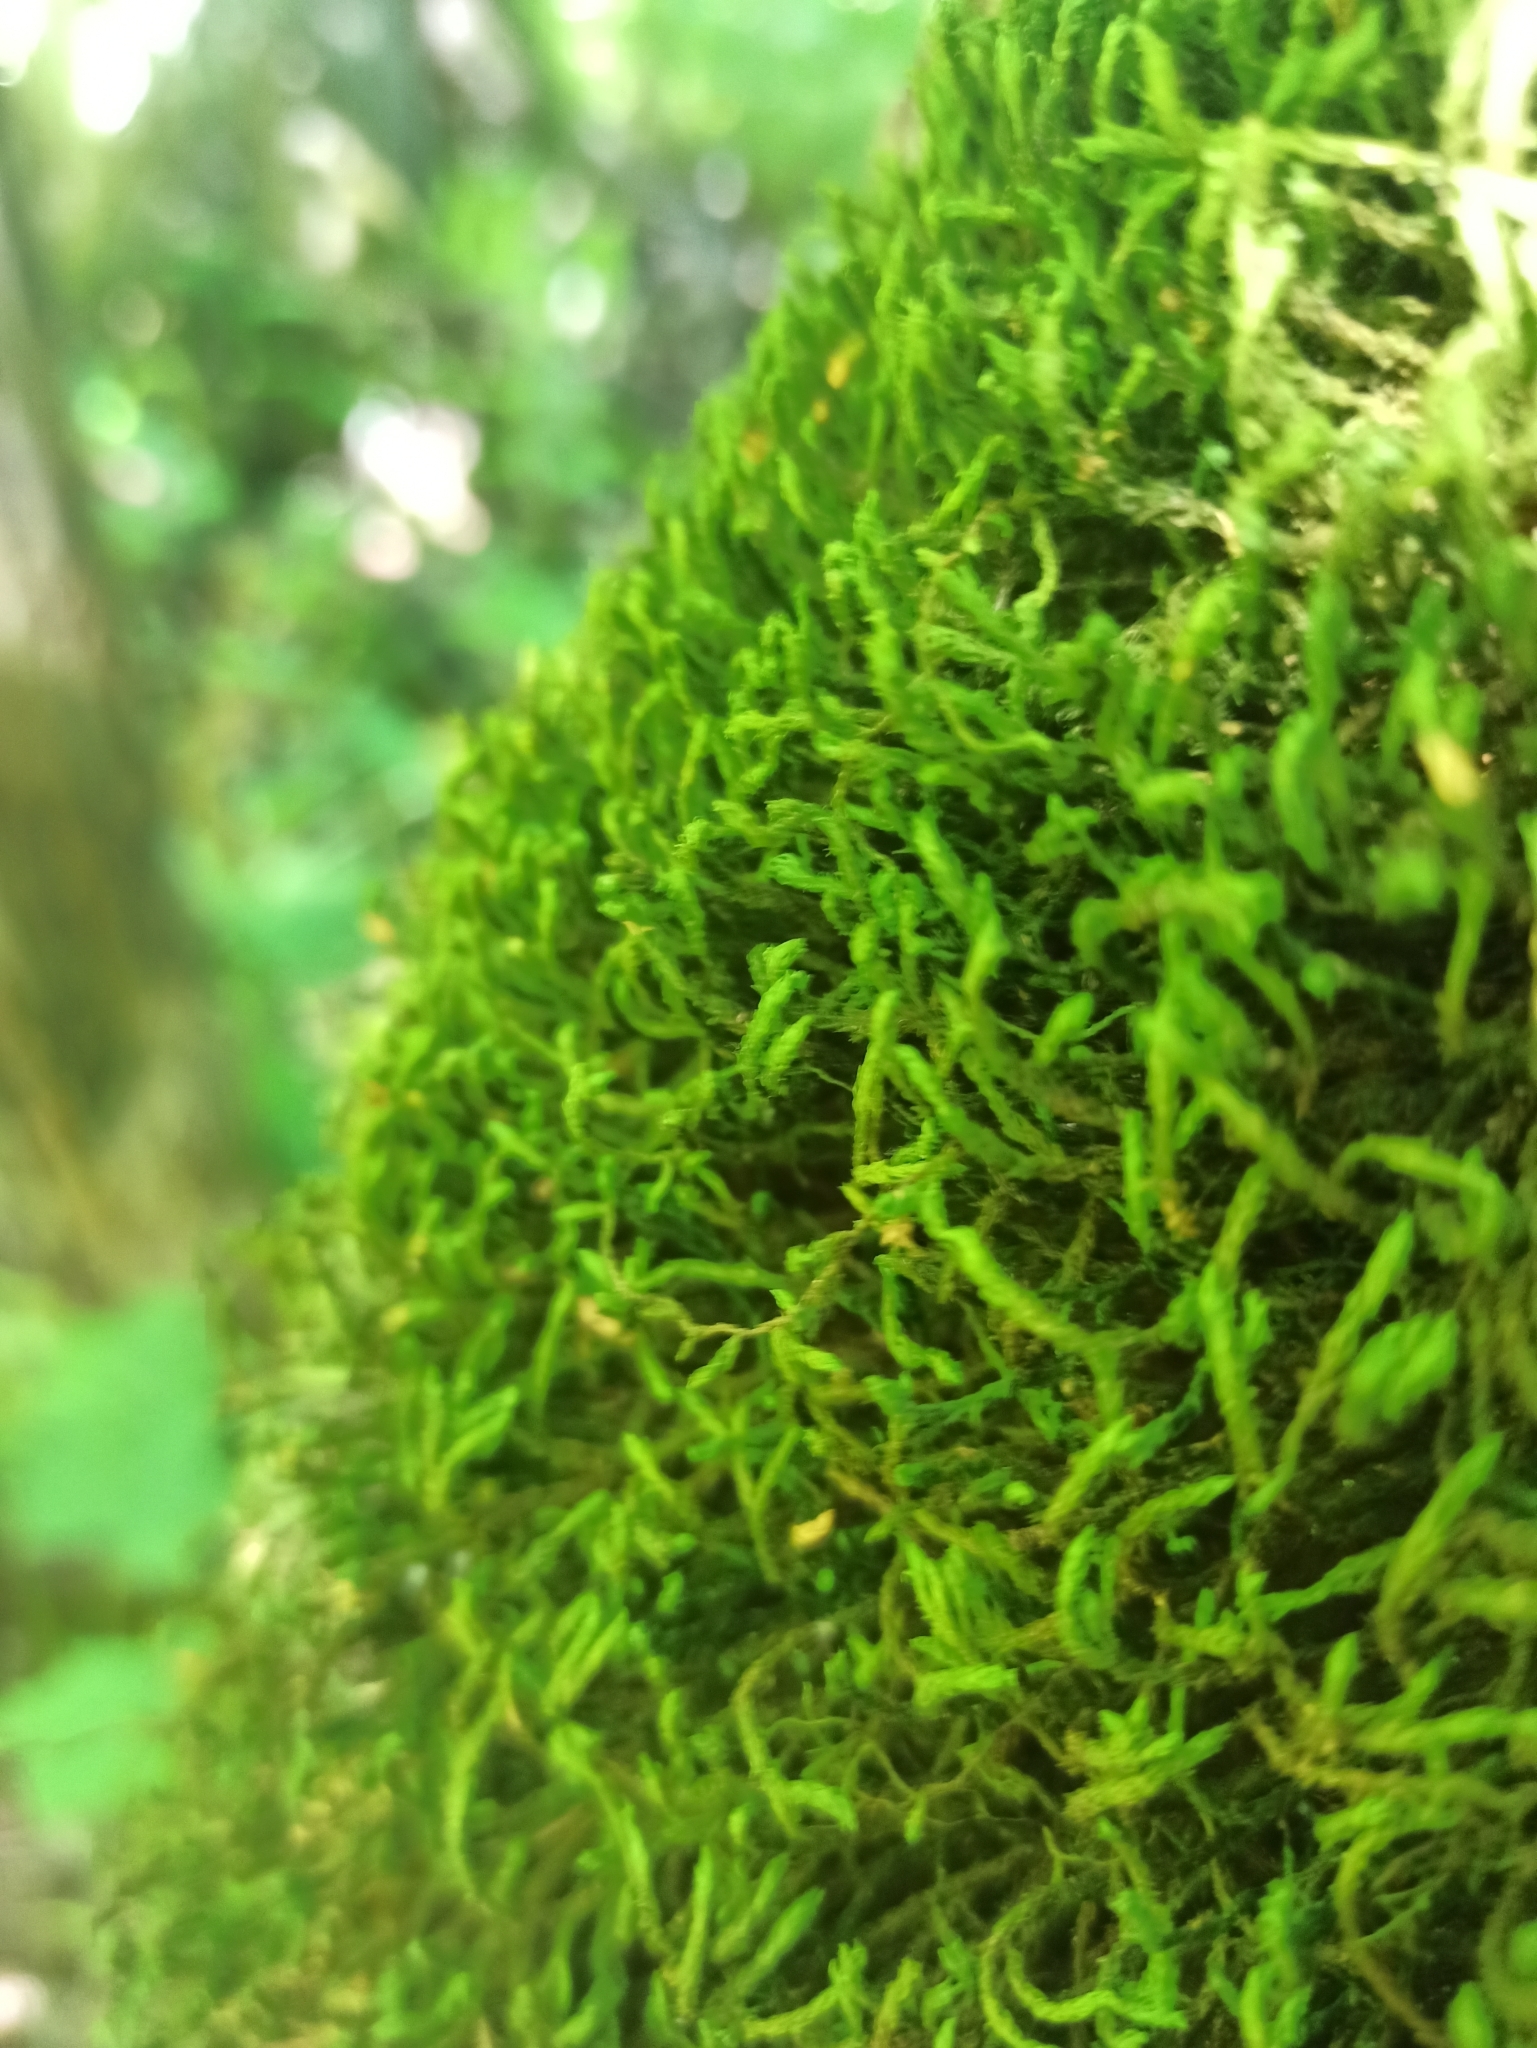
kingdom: Plantae
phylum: Bryophyta
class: Bryopsida
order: Hypnales
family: Anomodontaceae
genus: Anomodon
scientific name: Anomodon viticulosus
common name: Tall anomodon
